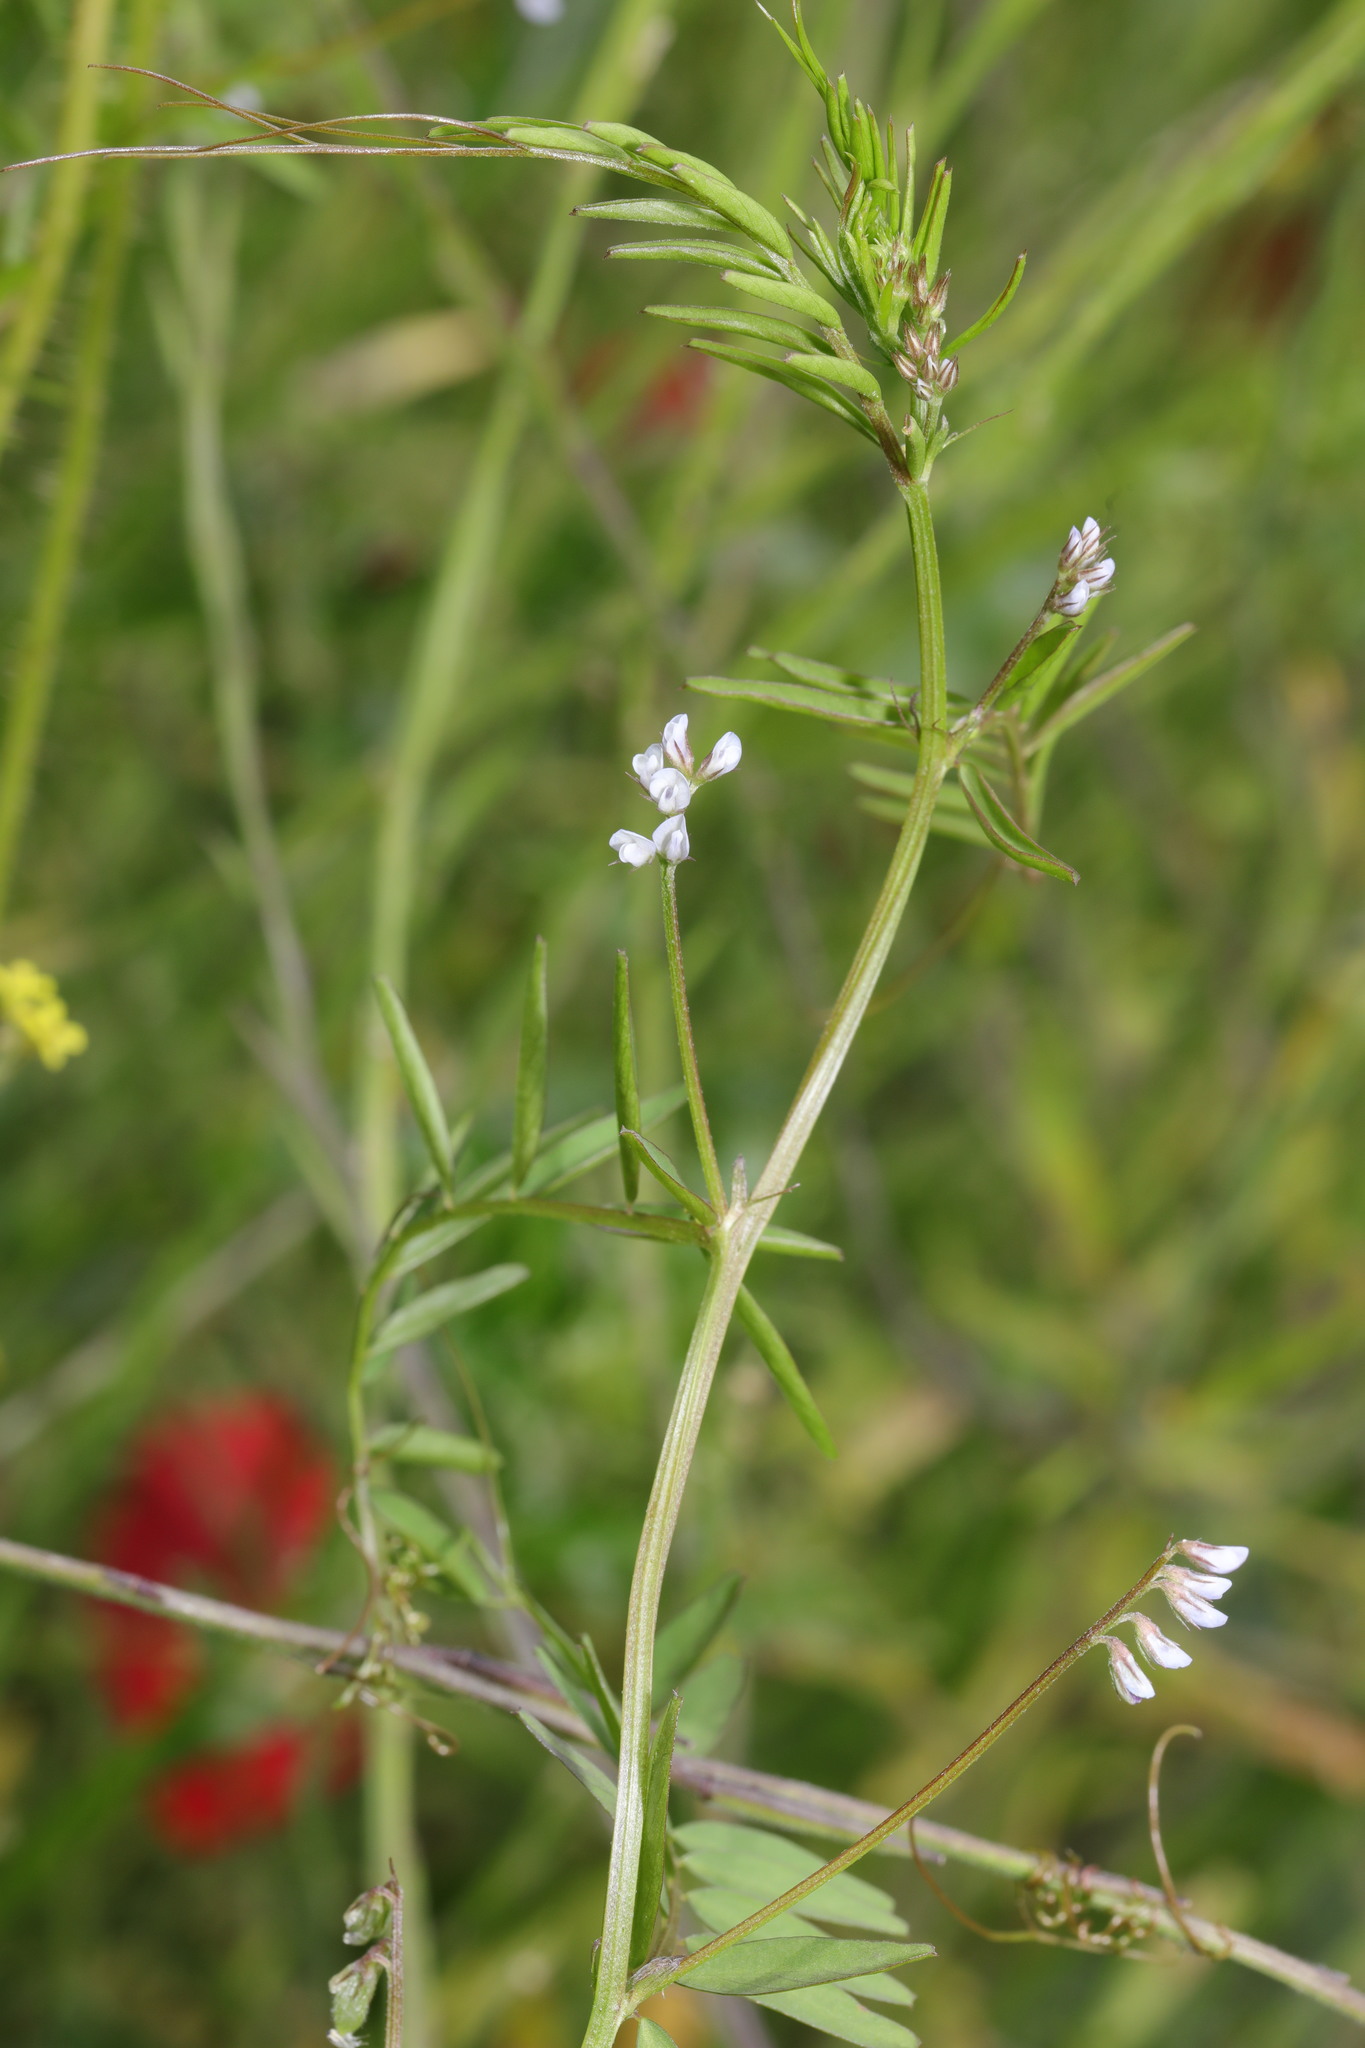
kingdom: Plantae
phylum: Tracheophyta
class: Magnoliopsida
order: Fabales
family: Fabaceae
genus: Vicia
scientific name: Vicia hirsuta
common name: Tiny vetch
